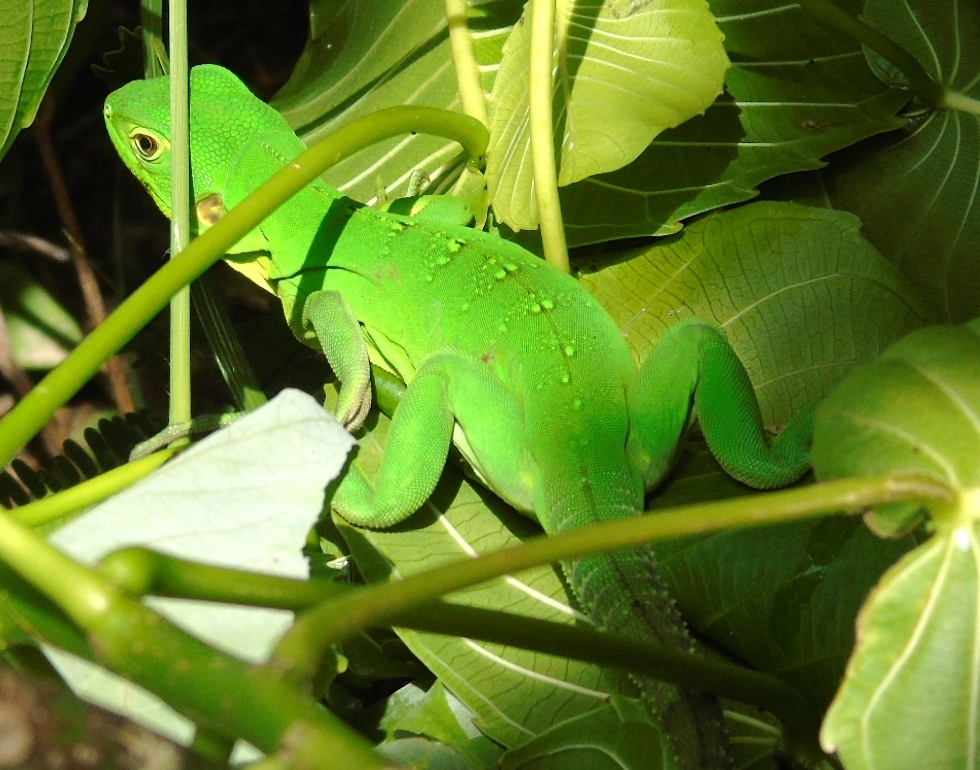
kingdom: Animalia
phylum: Chordata
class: Squamata
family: Iguanidae
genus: Ctenosaura
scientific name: Ctenosaura pectinata
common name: Guerreran spiny-tailed iguana
